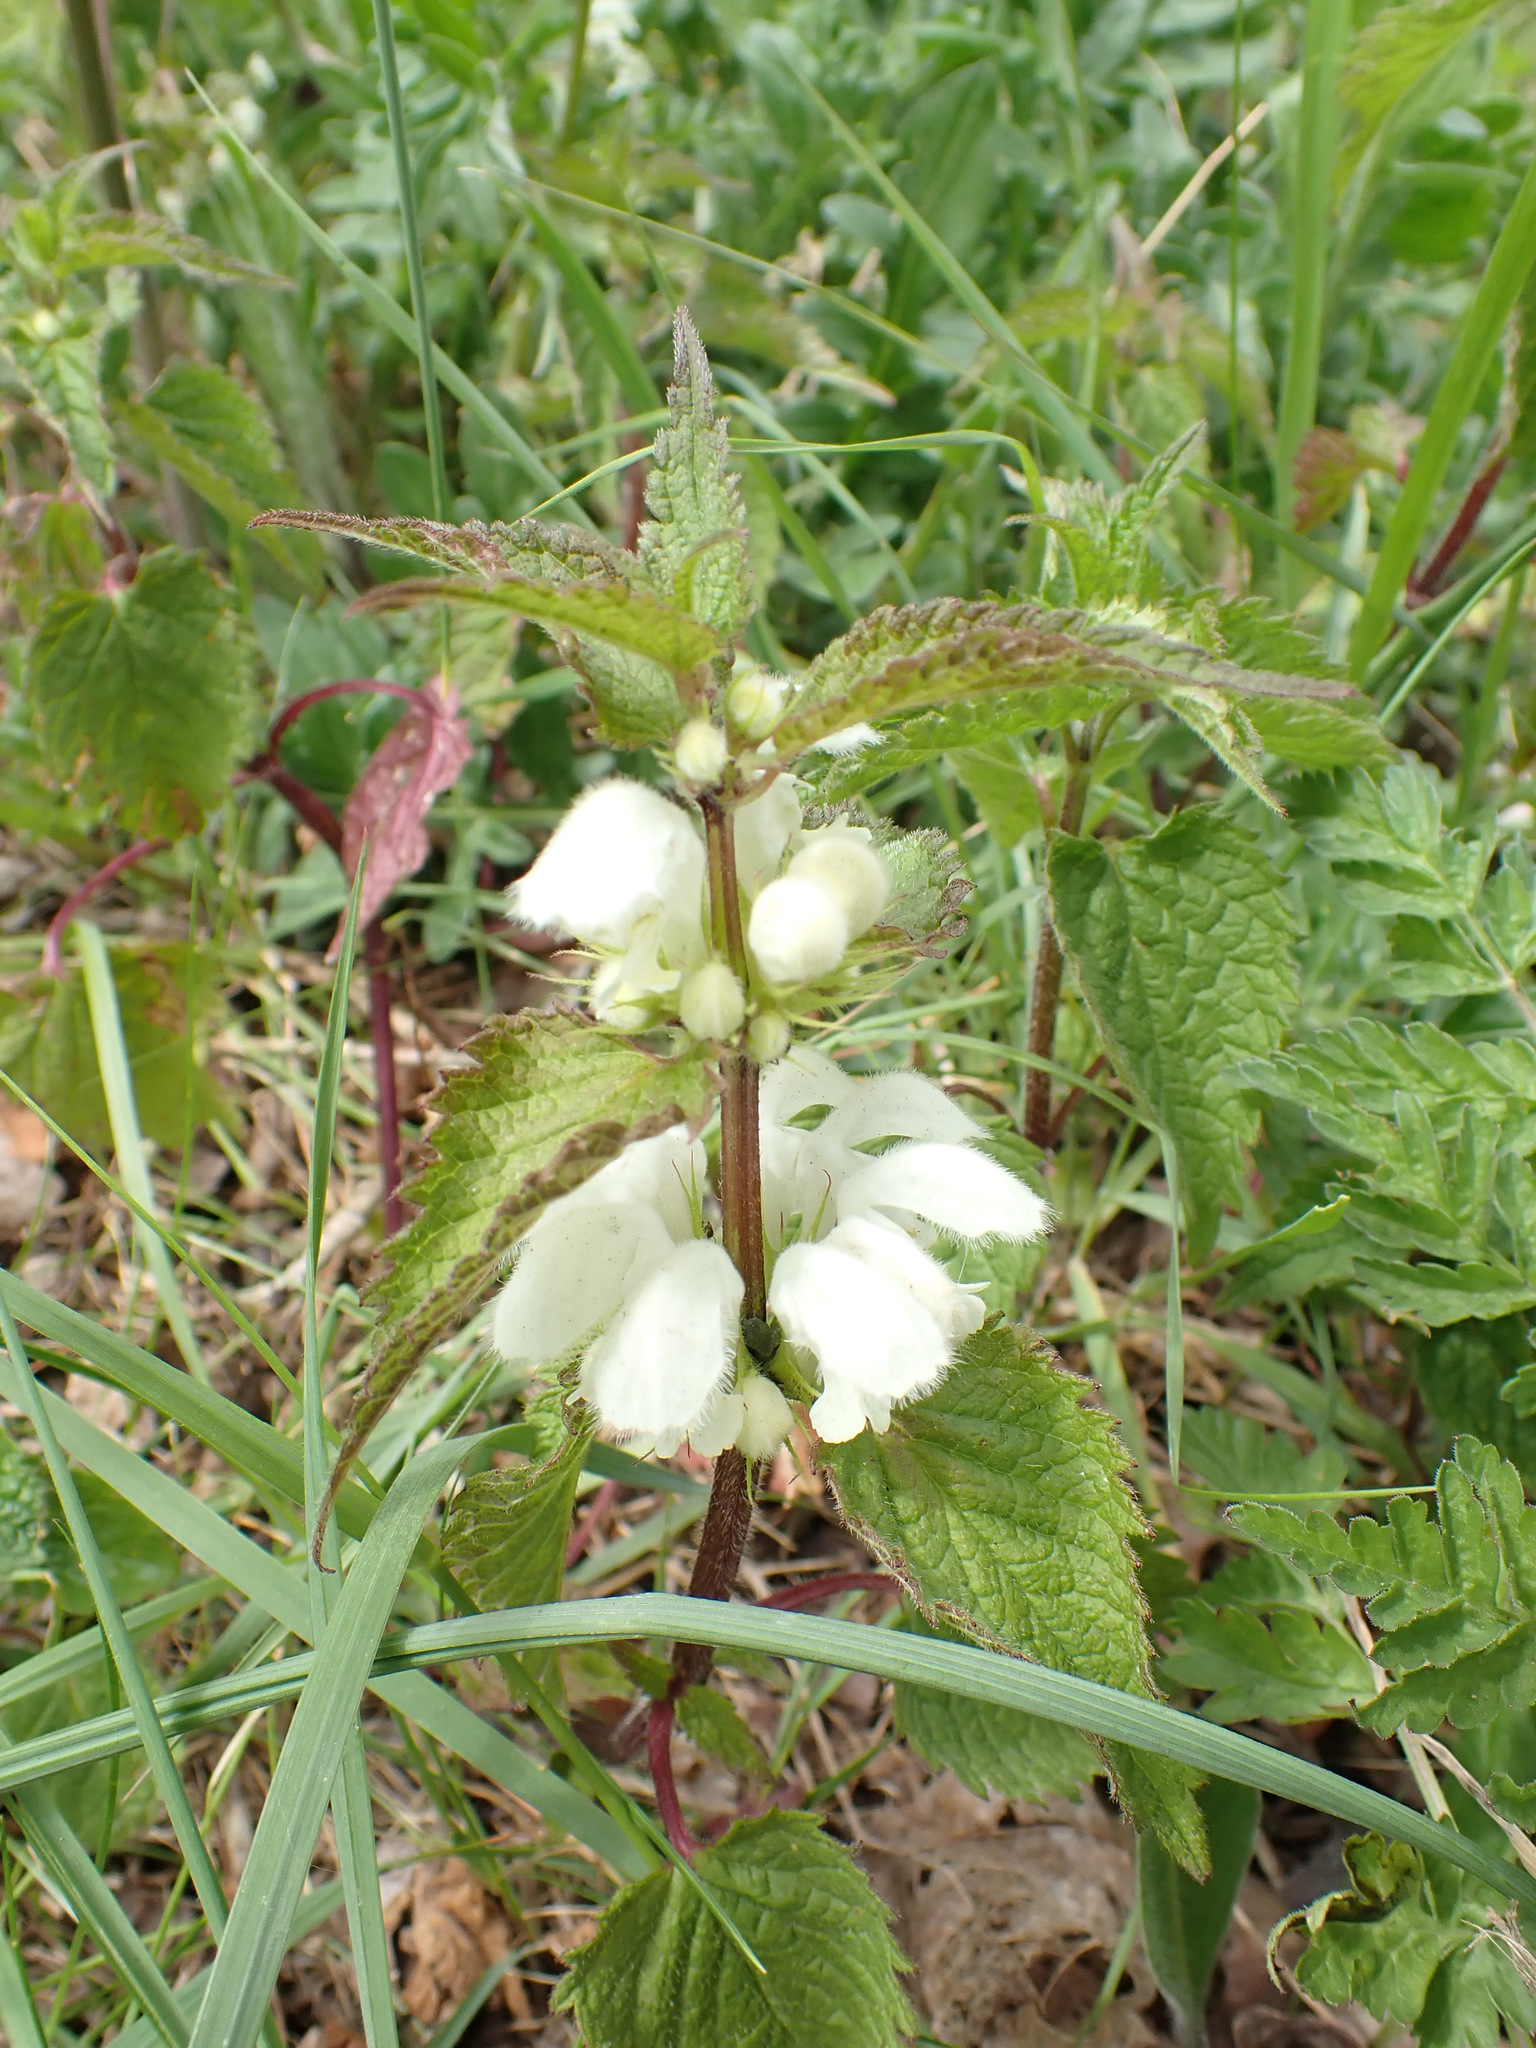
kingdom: Plantae
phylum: Tracheophyta
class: Magnoliopsida
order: Lamiales
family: Lamiaceae
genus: Lamium
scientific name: Lamium album
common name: White dead-nettle
